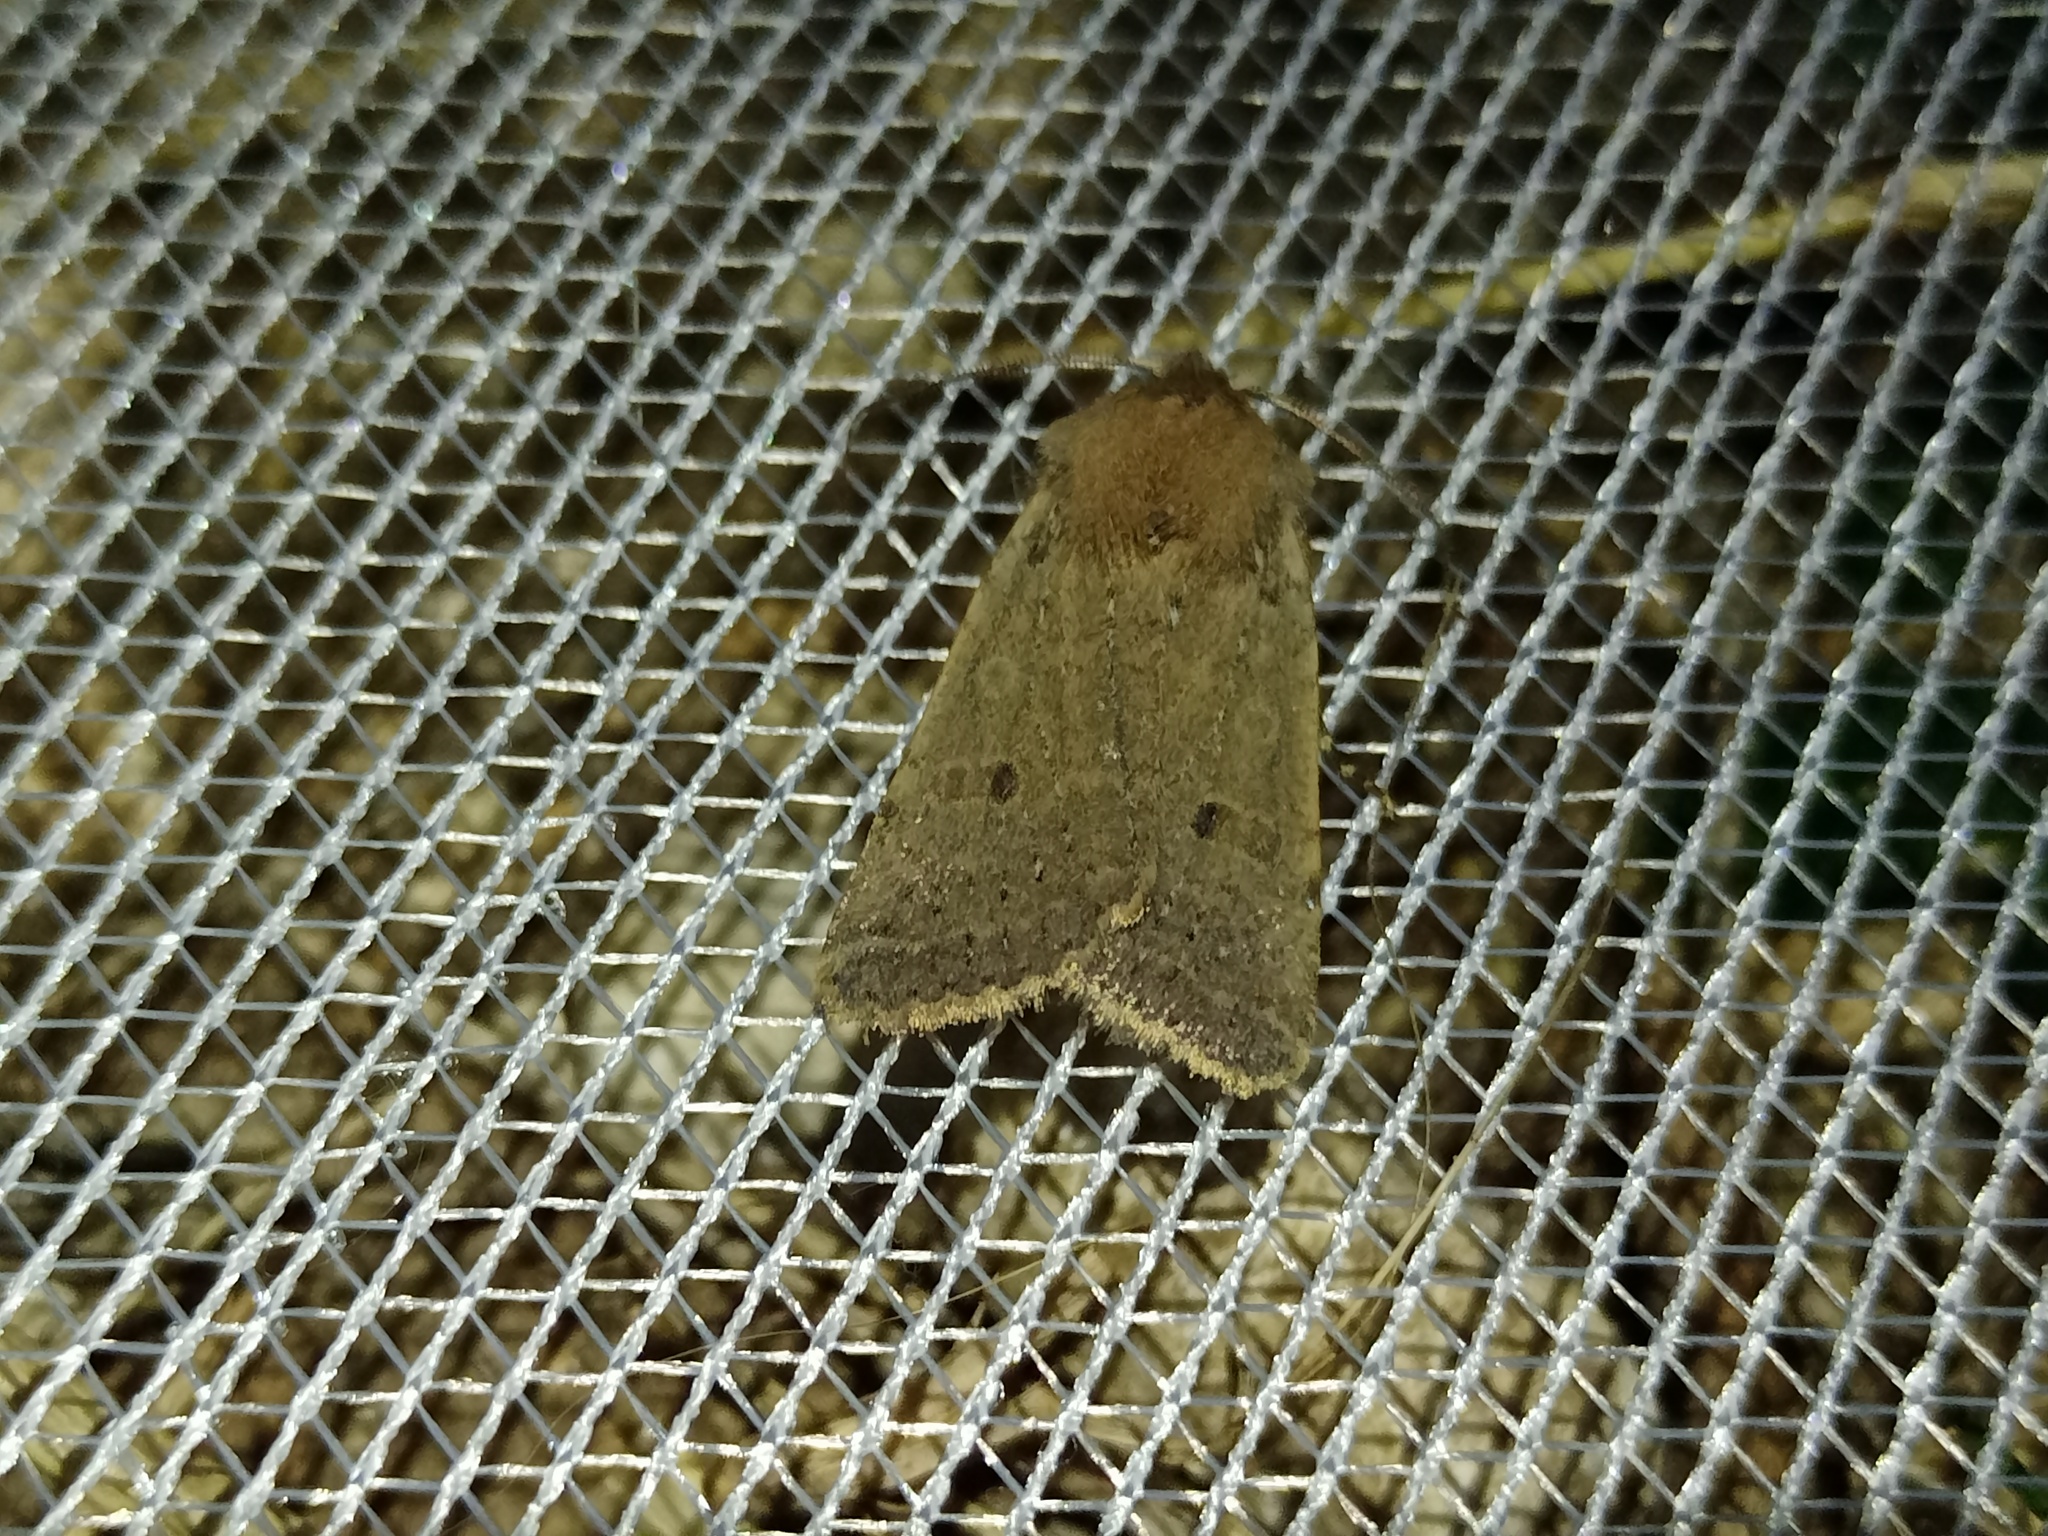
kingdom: Animalia
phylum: Arthropoda
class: Insecta
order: Lepidoptera
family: Noctuidae
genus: Agrochola
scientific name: Agrochola ruticilla
